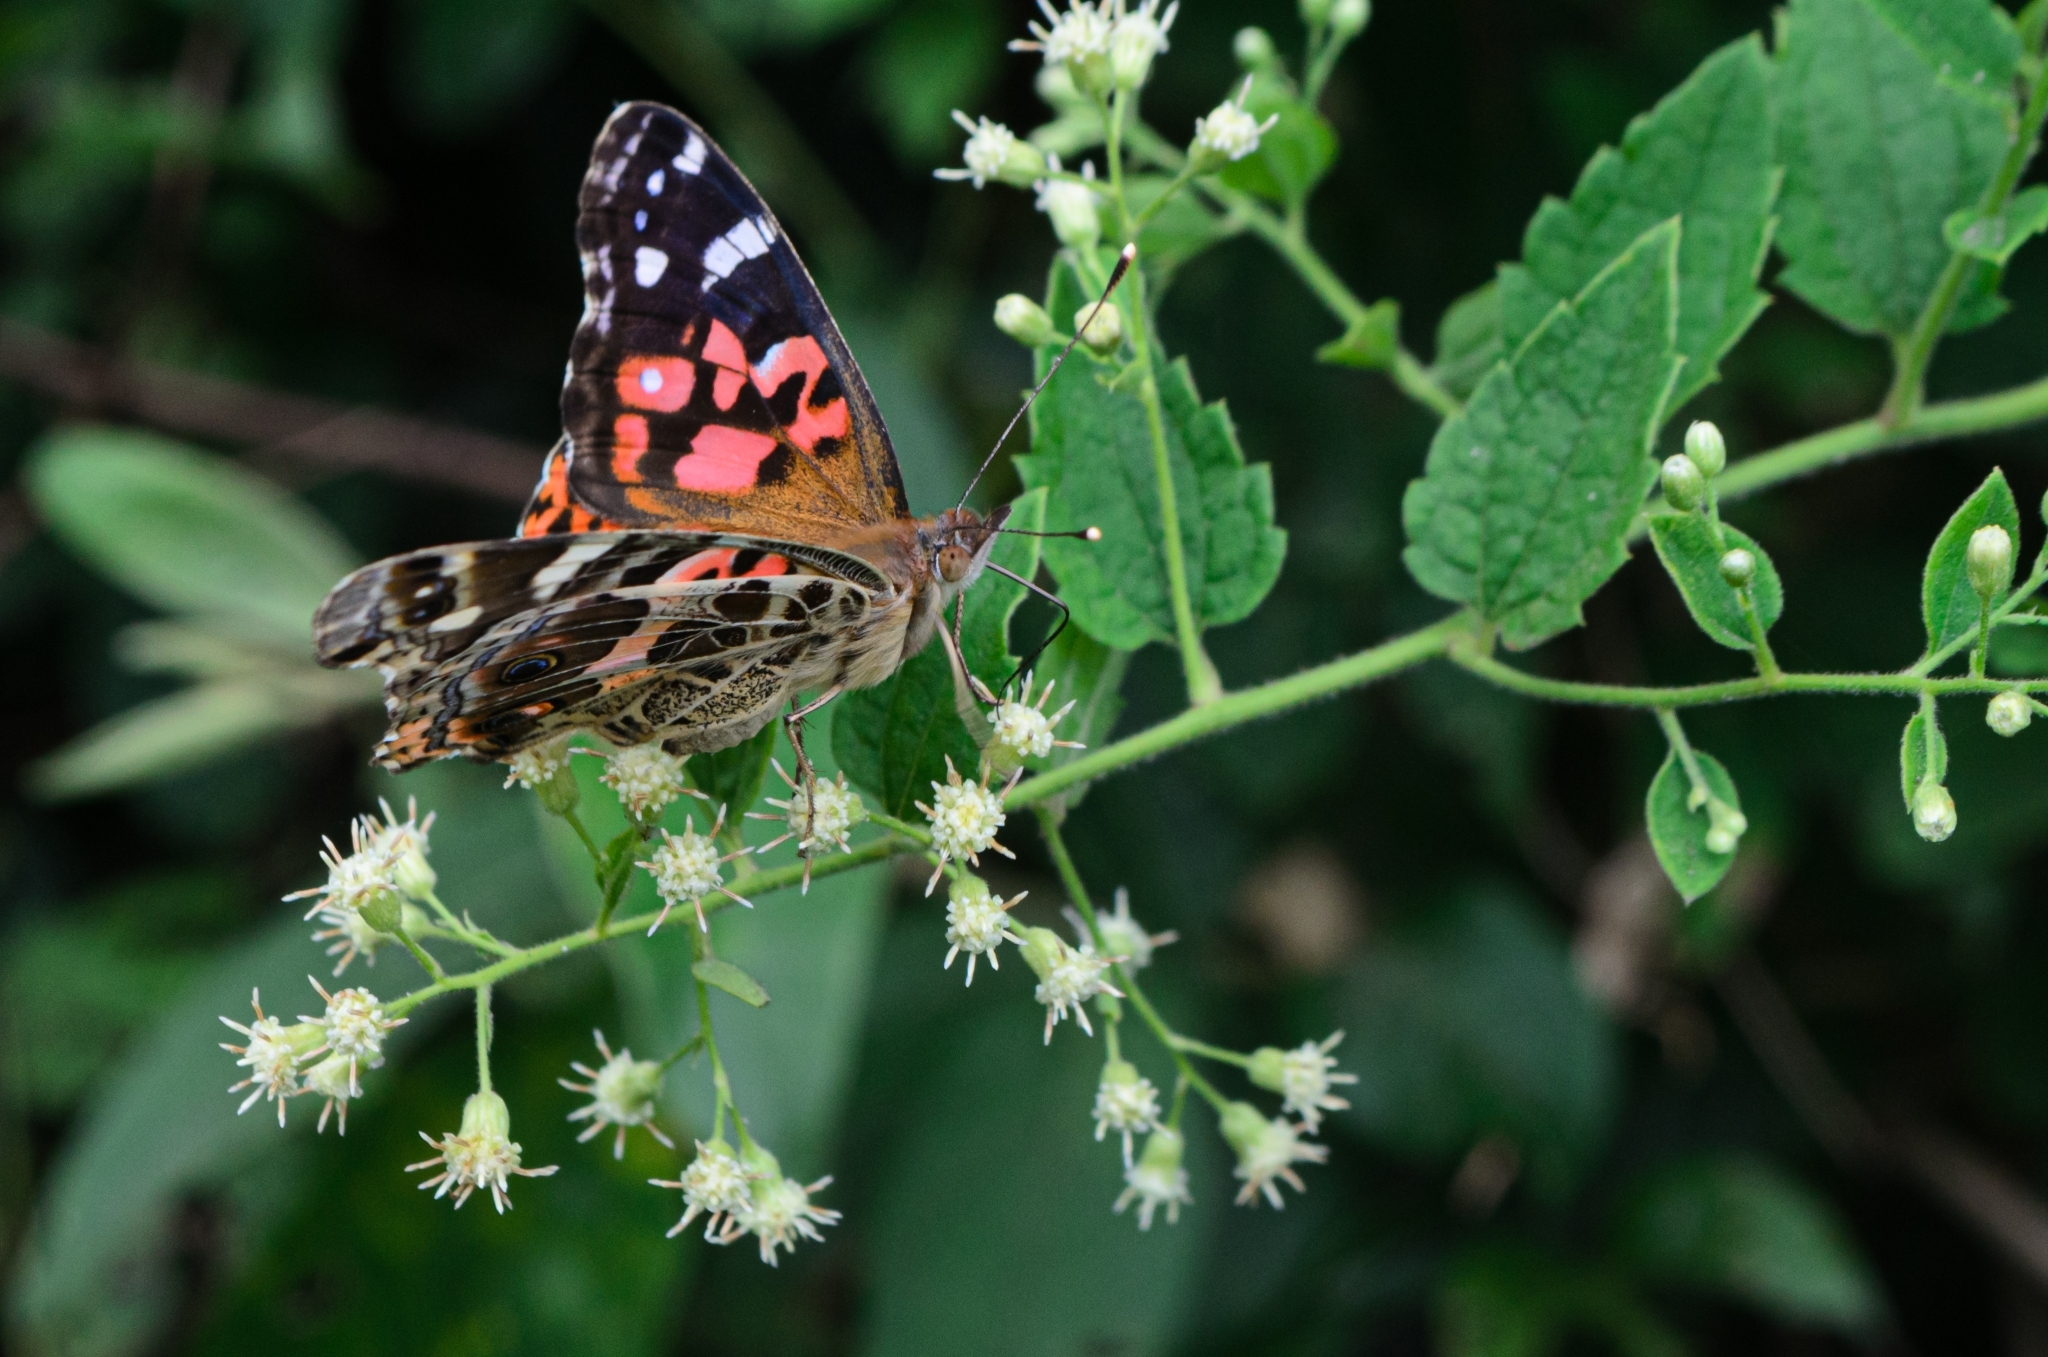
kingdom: Animalia
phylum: Arthropoda
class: Insecta
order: Lepidoptera
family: Nymphalidae
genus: Vanessa
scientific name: Vanessa braziliensis
